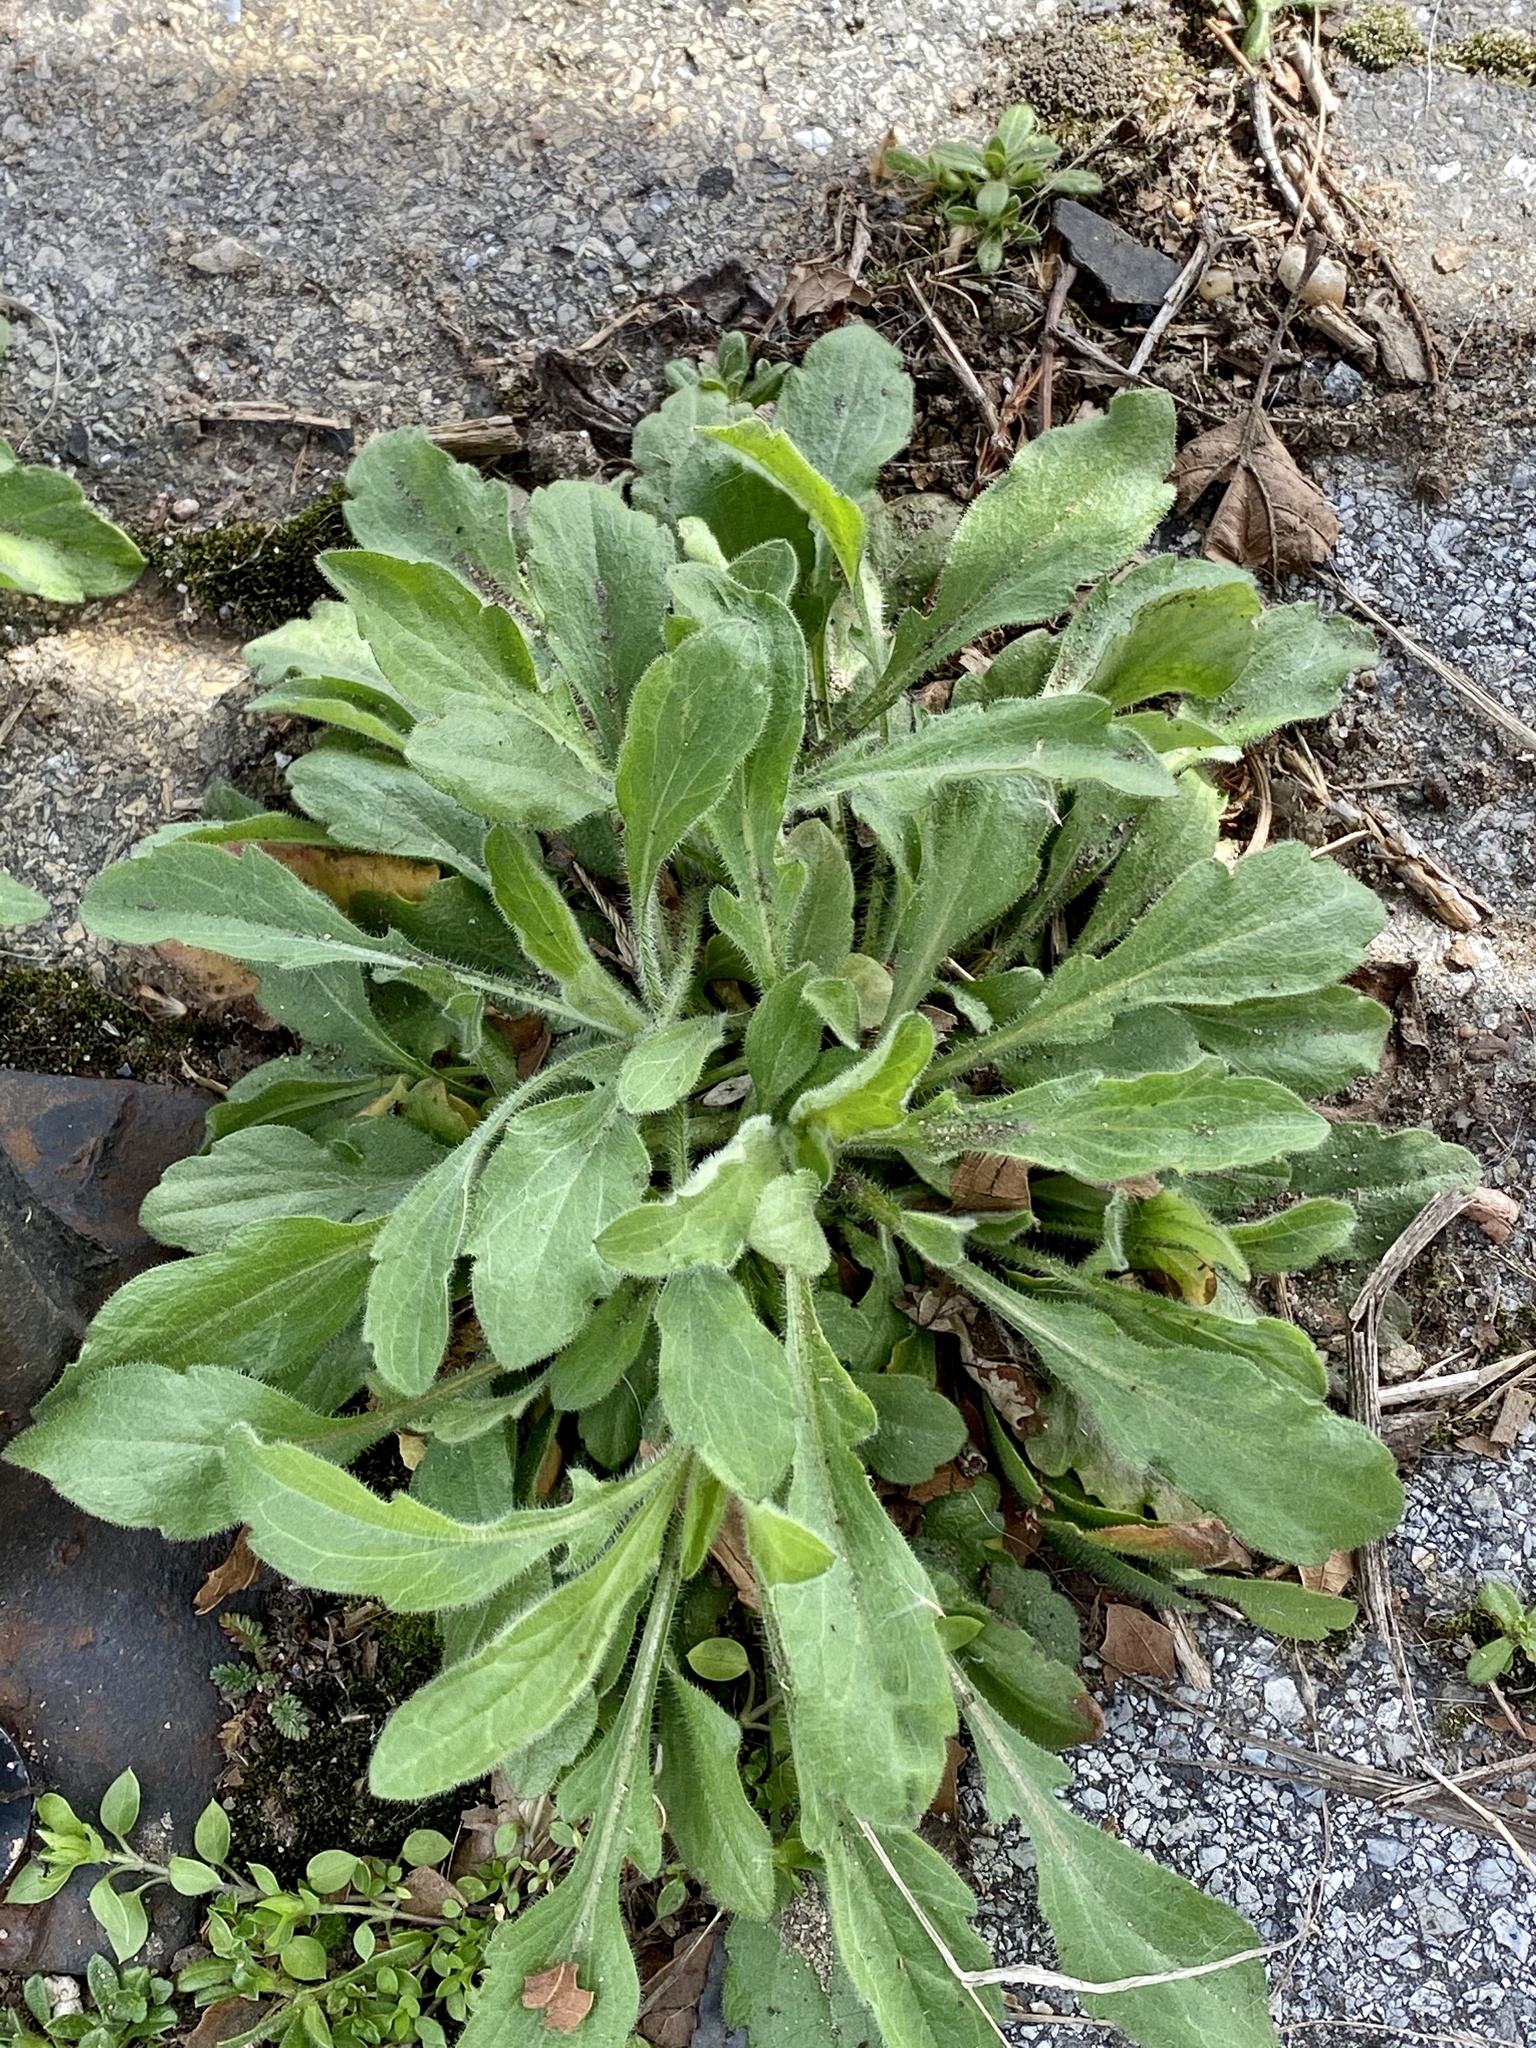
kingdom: Plantae
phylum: Tracheophyta
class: Magnoliopsida
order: Asterales
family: Asteraceae
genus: Erigeron
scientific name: Erigeron canadensis
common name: Canadian fleabane
